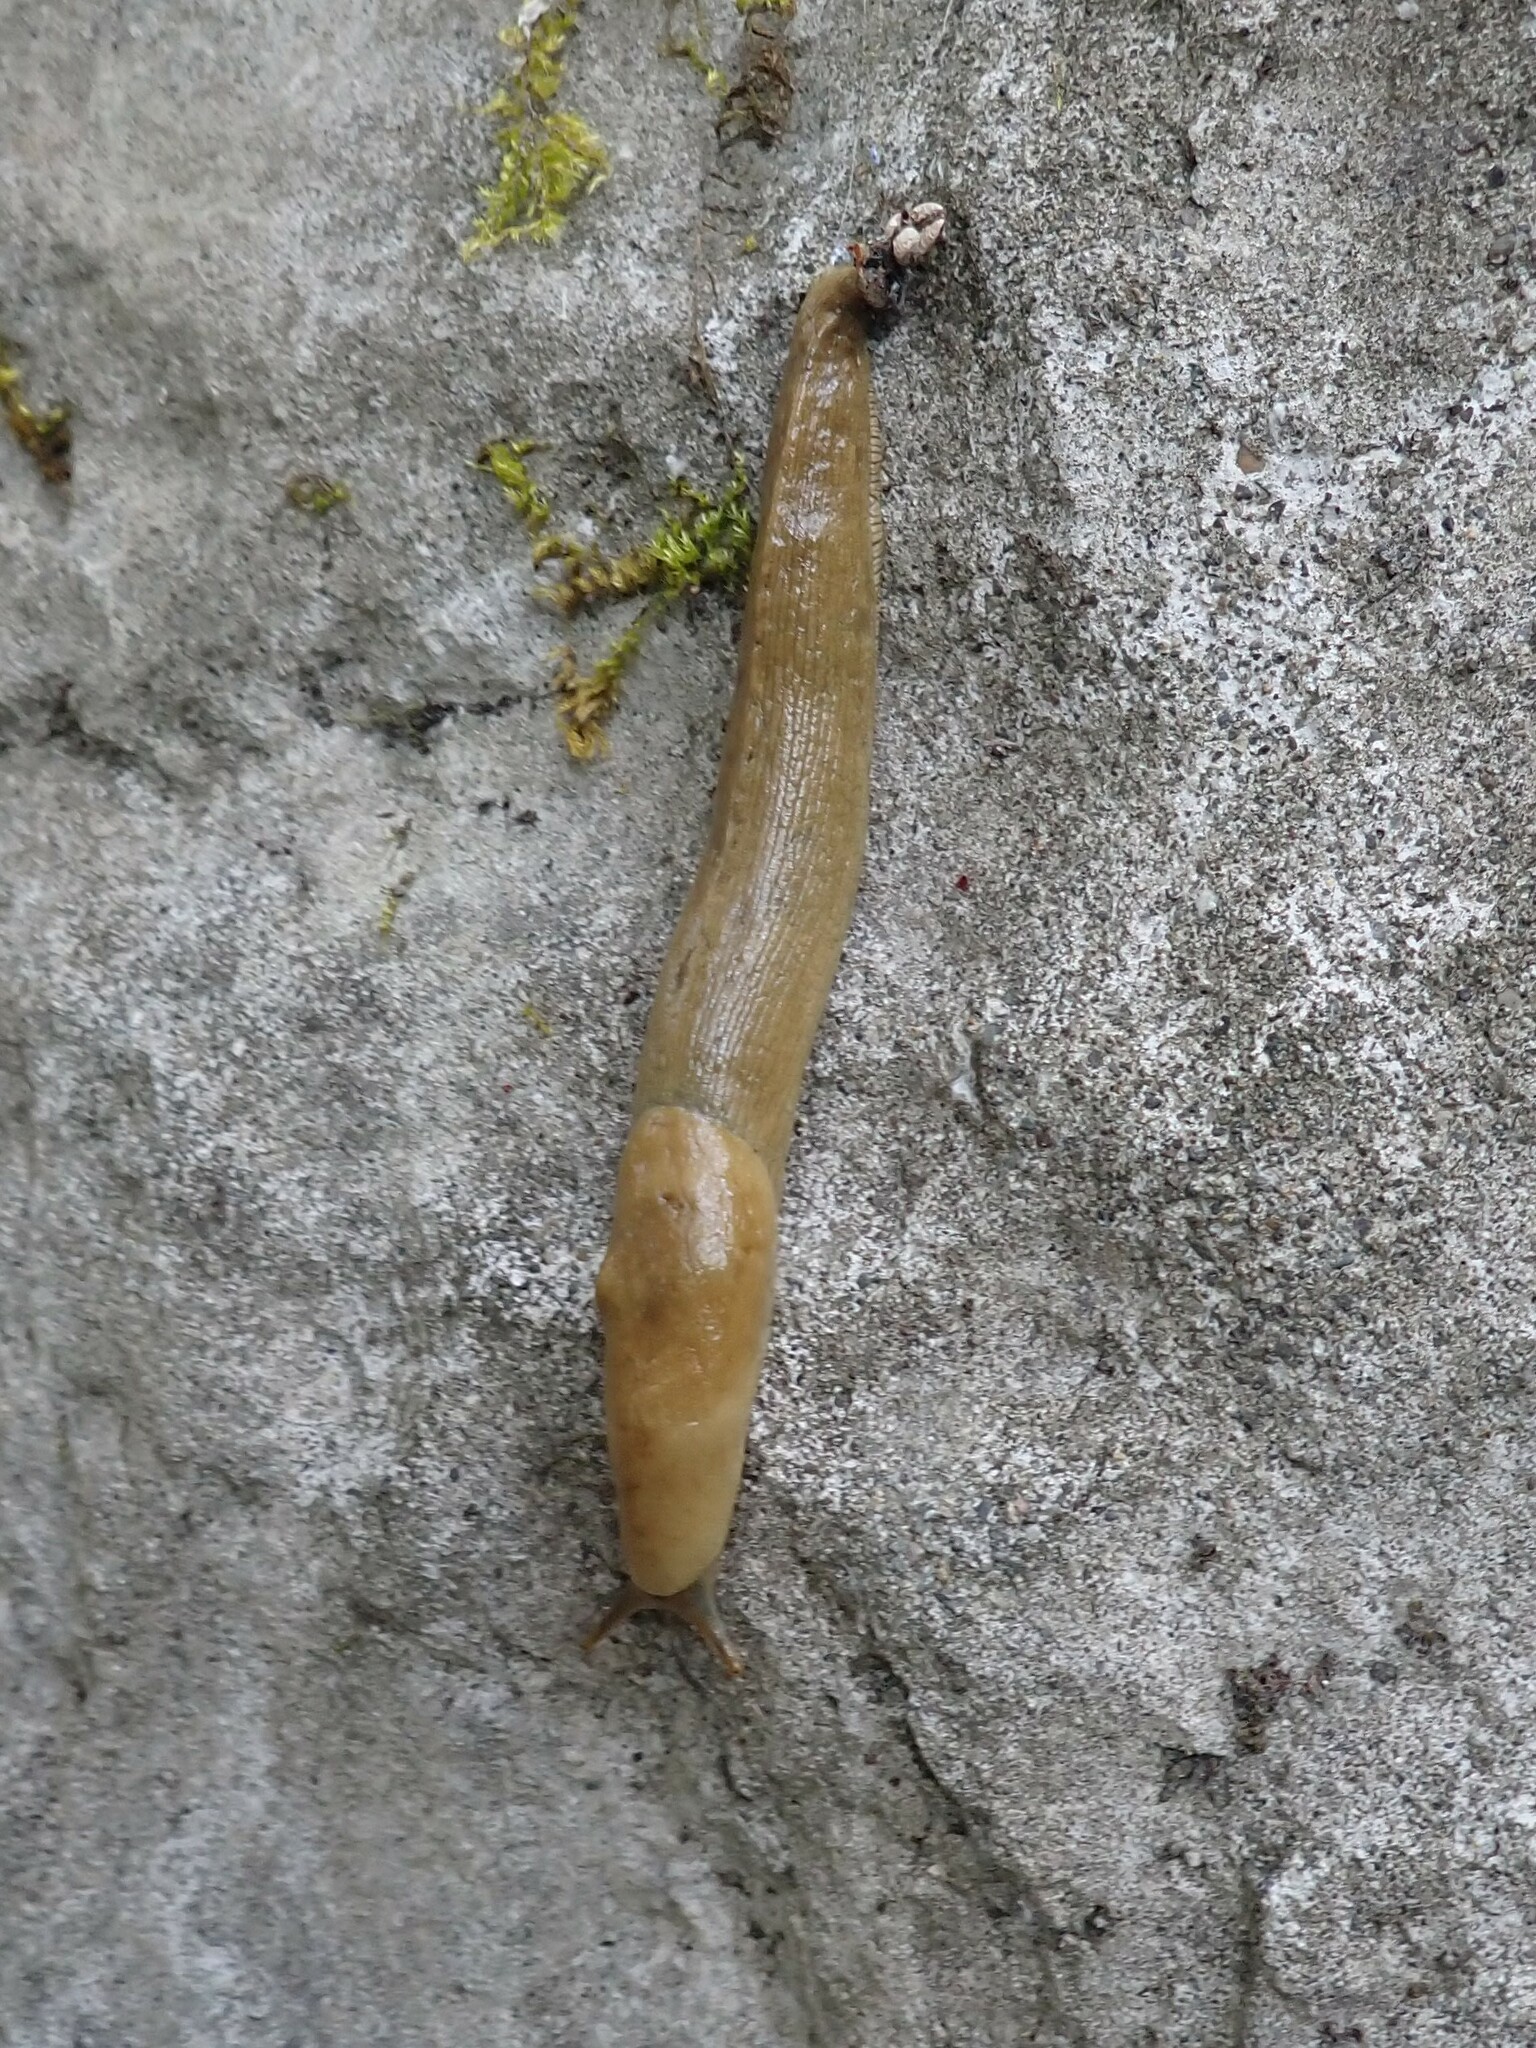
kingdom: Animalia
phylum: Mollusca
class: Gastropoda
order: Stylommatophora
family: Ariolimacidae
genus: Ariolimax
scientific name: Ariolimax columbianus
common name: Pacific banana slug
